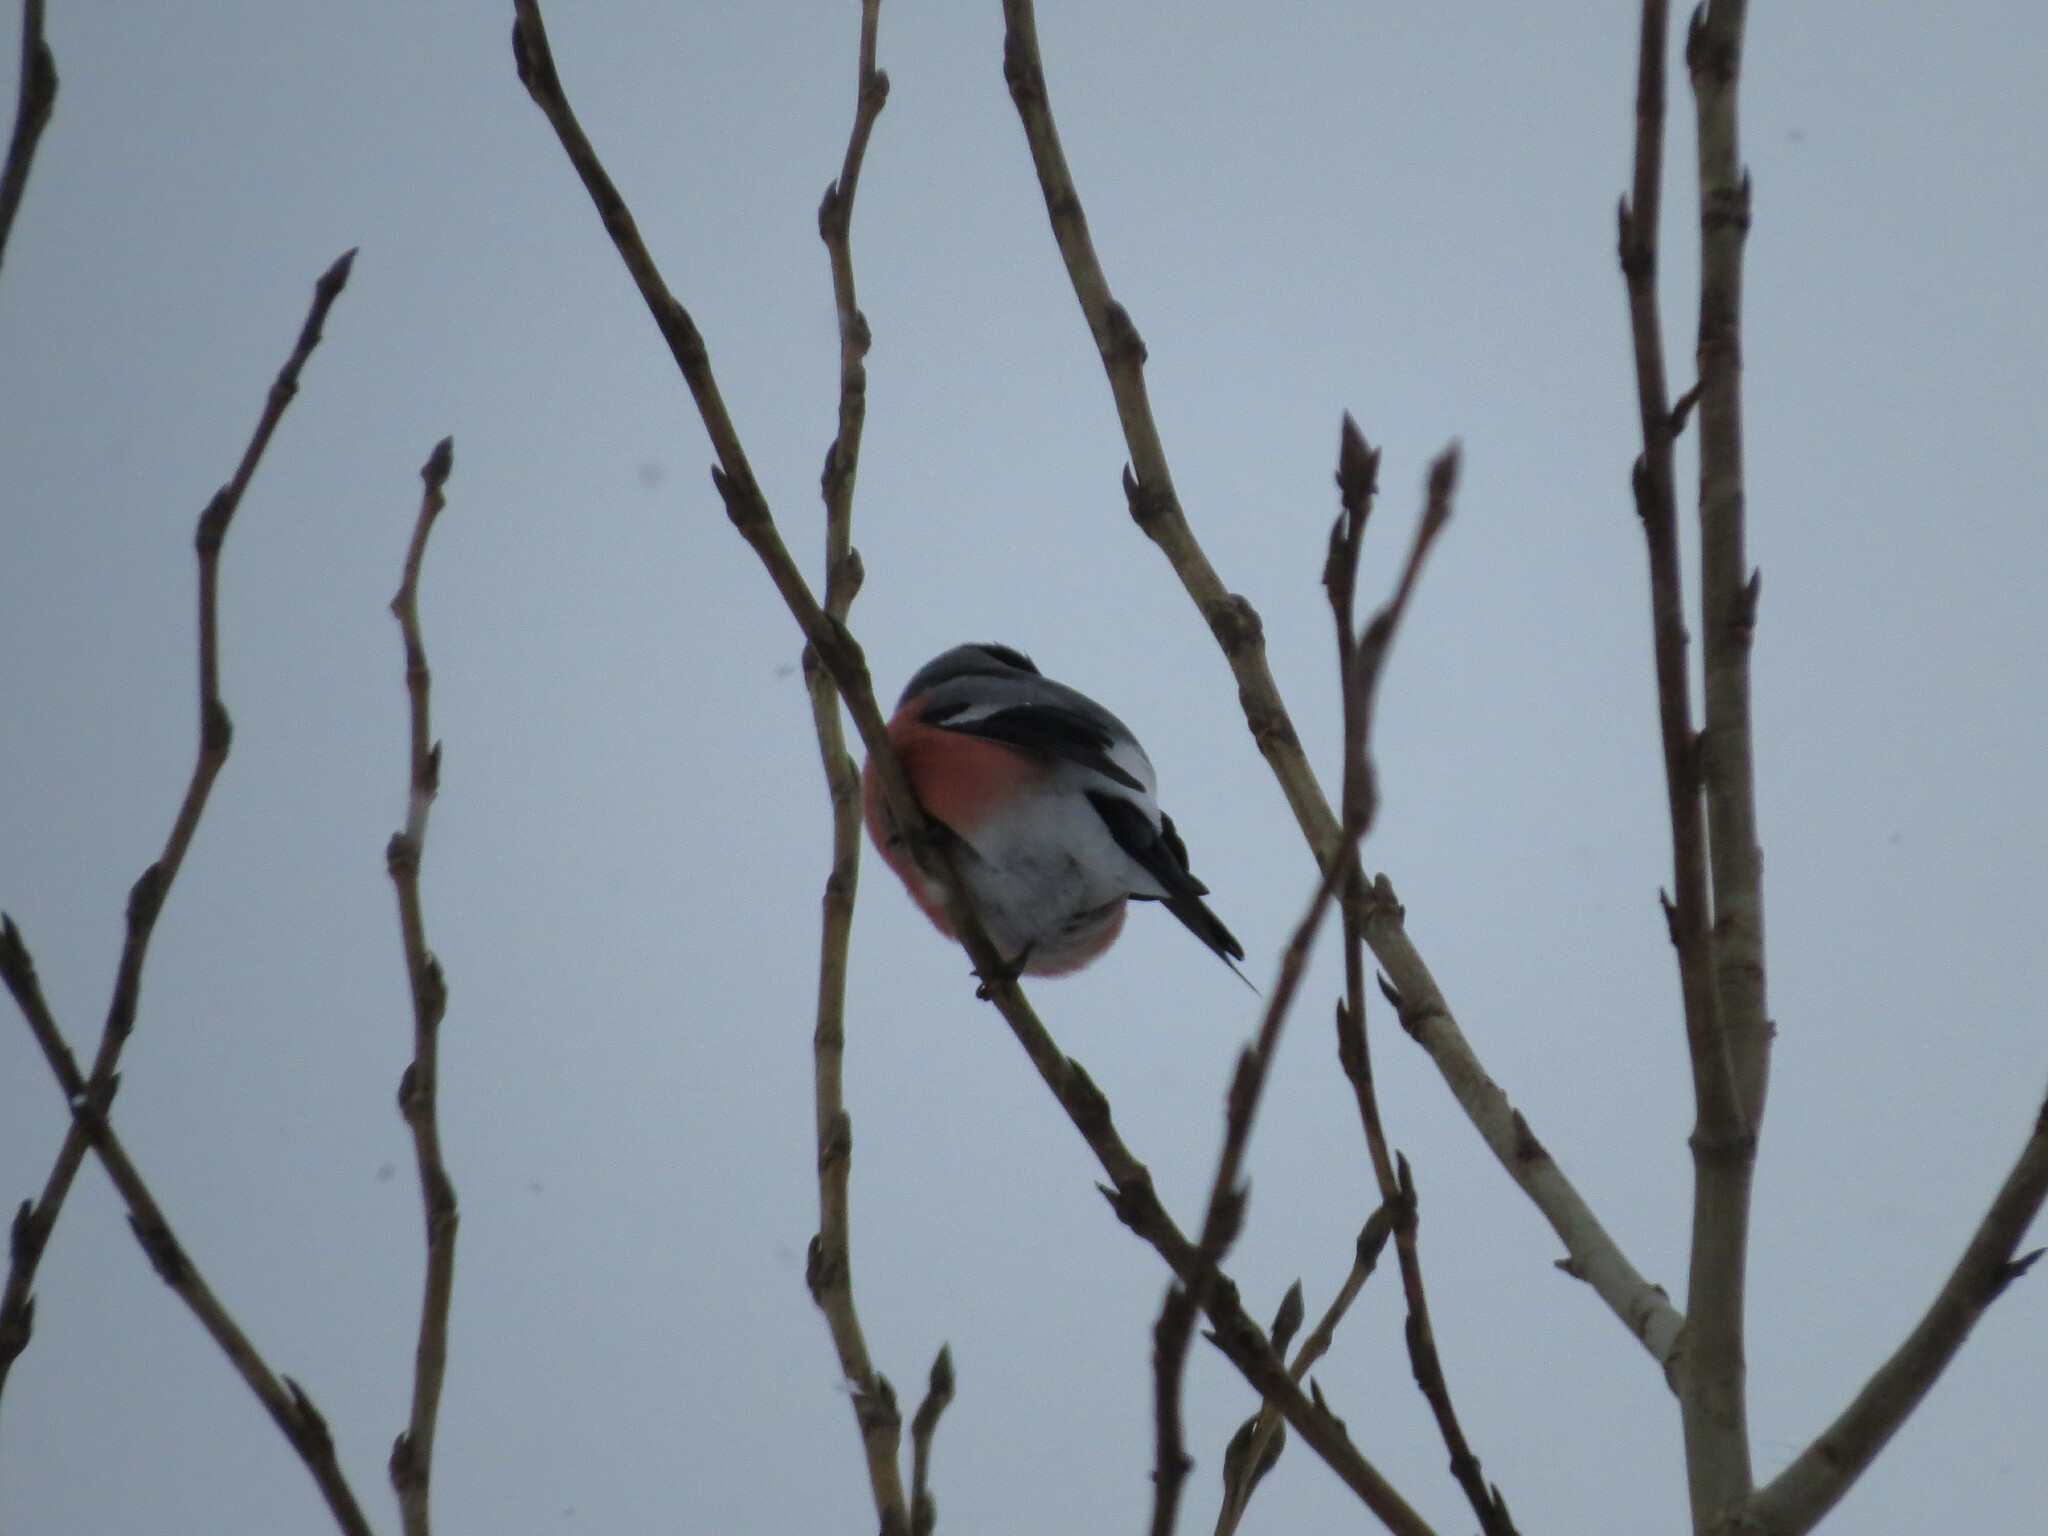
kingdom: Animalia
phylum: Chordata
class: Aves
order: Passeriformes
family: Fringillidae
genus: Pyrrhula
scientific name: Pyrrhula pyrrhula
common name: Eurasian bullfinch
